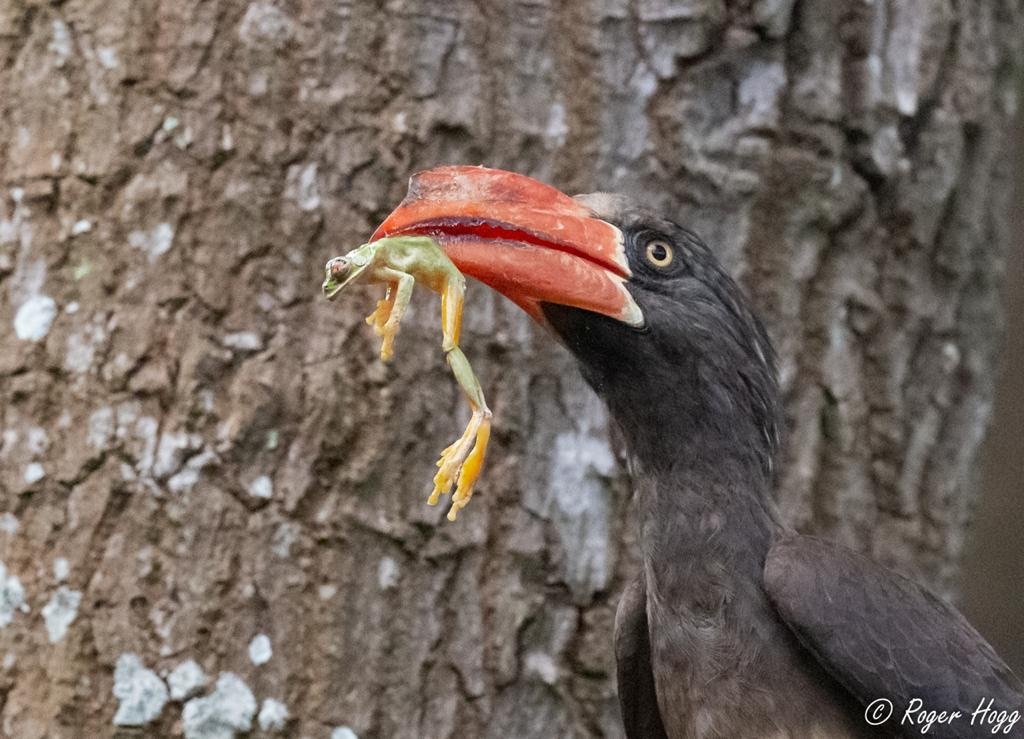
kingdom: Animalia
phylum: Chordata
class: Aves
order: Bucerotiformes
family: Bucerotidae
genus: Lophoceros
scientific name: Lophoceros alboterminatus
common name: Crowned hornbill
